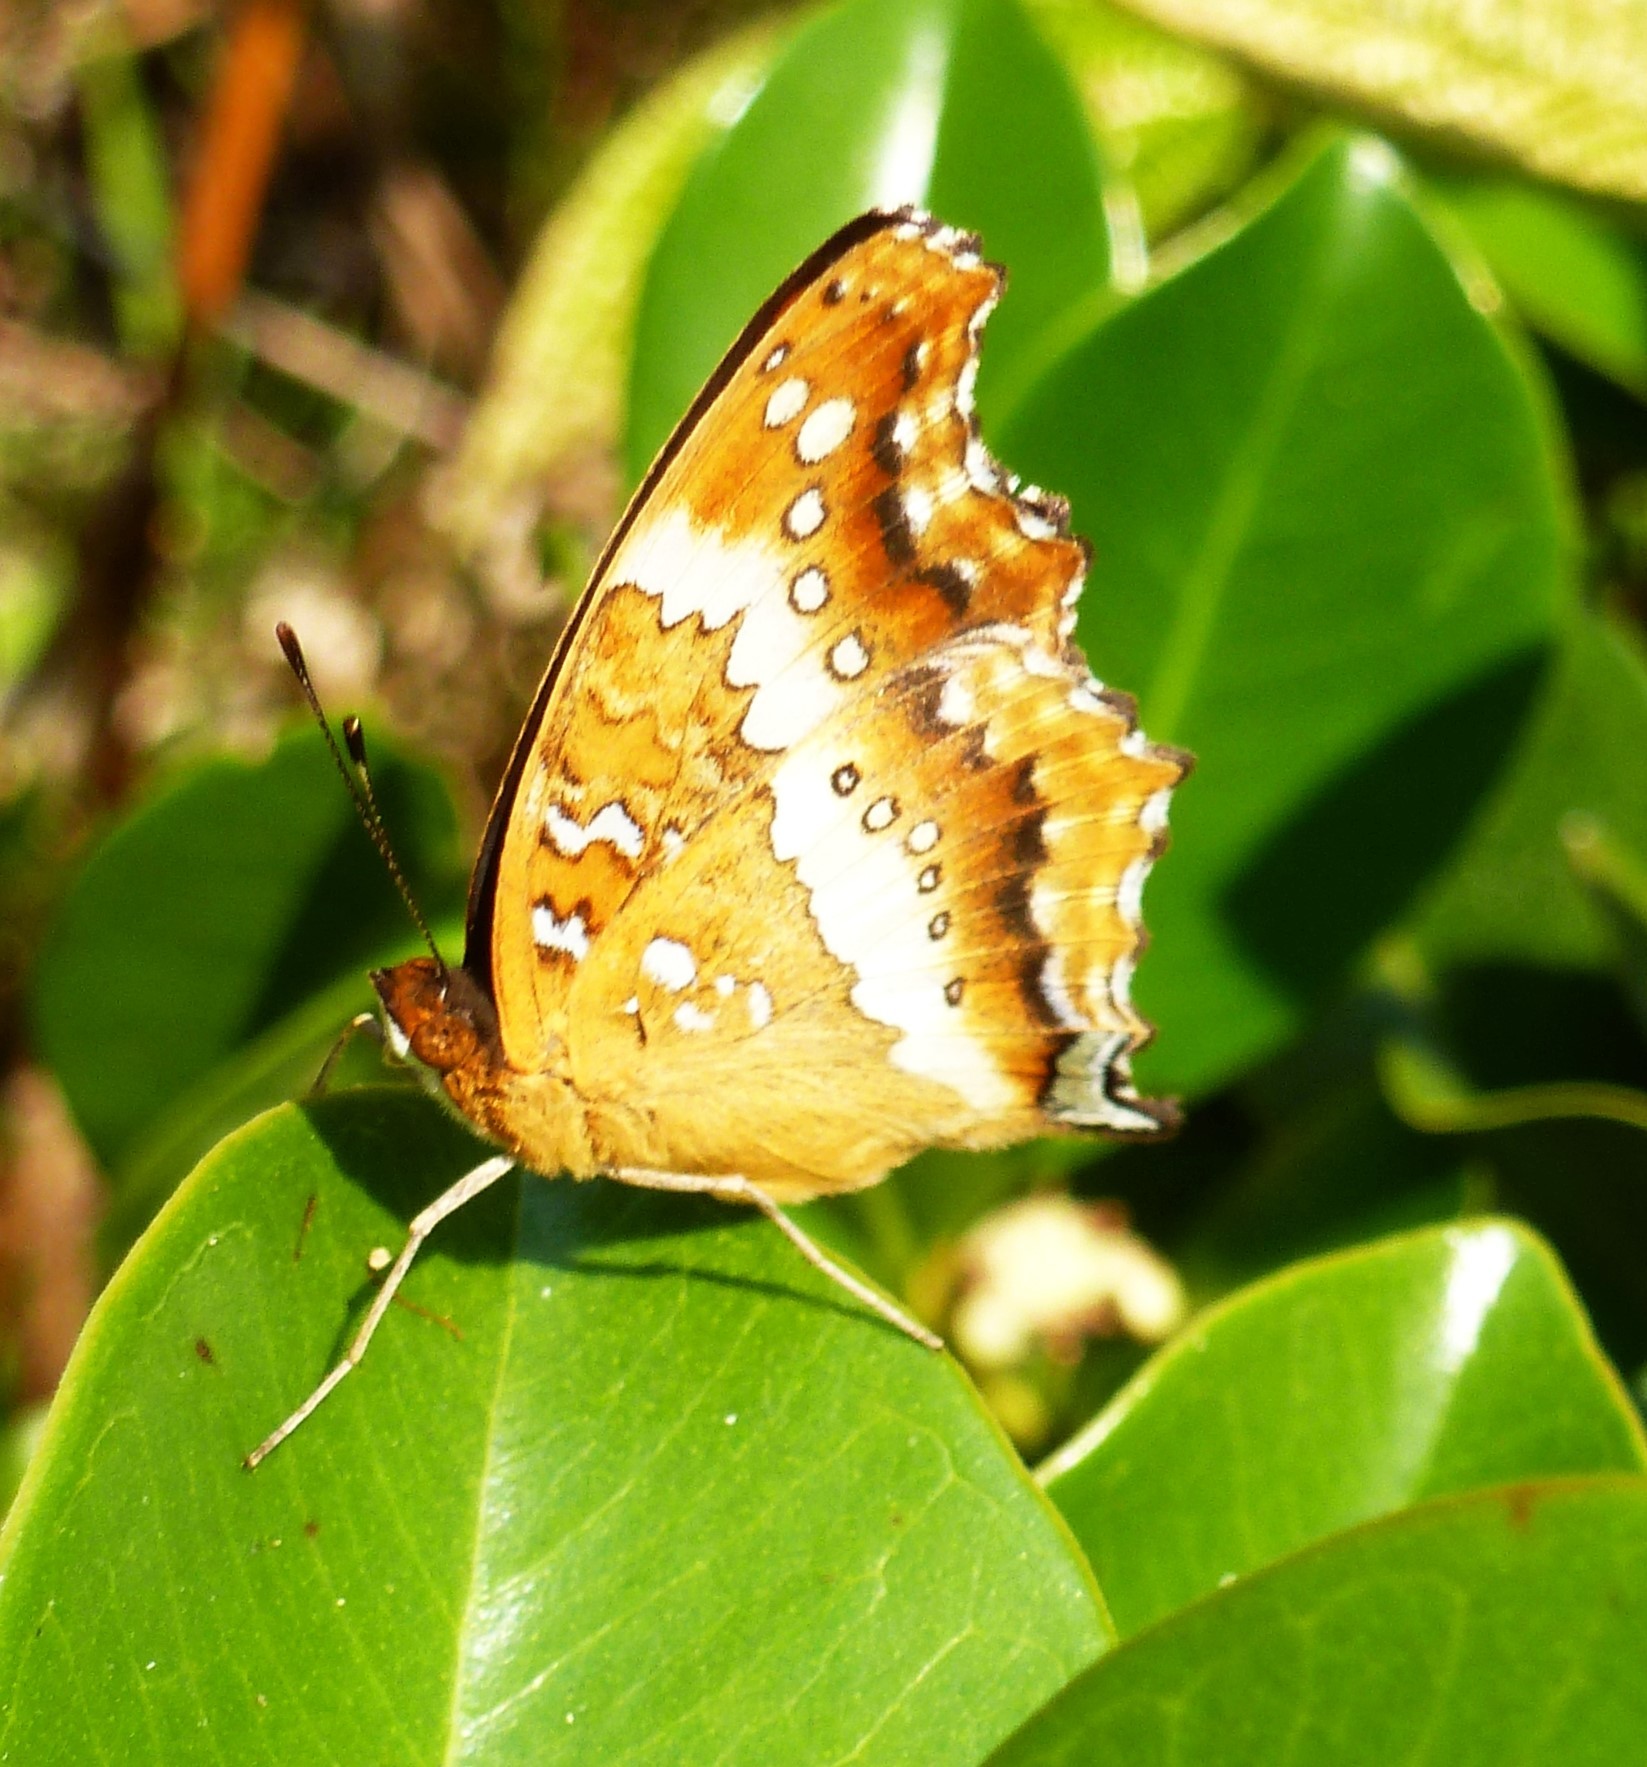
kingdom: Animalia
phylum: Arthropoda
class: Insecta
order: Lepidoptera
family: Nymphalidae
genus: Precis
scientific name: Precis andremiaja
